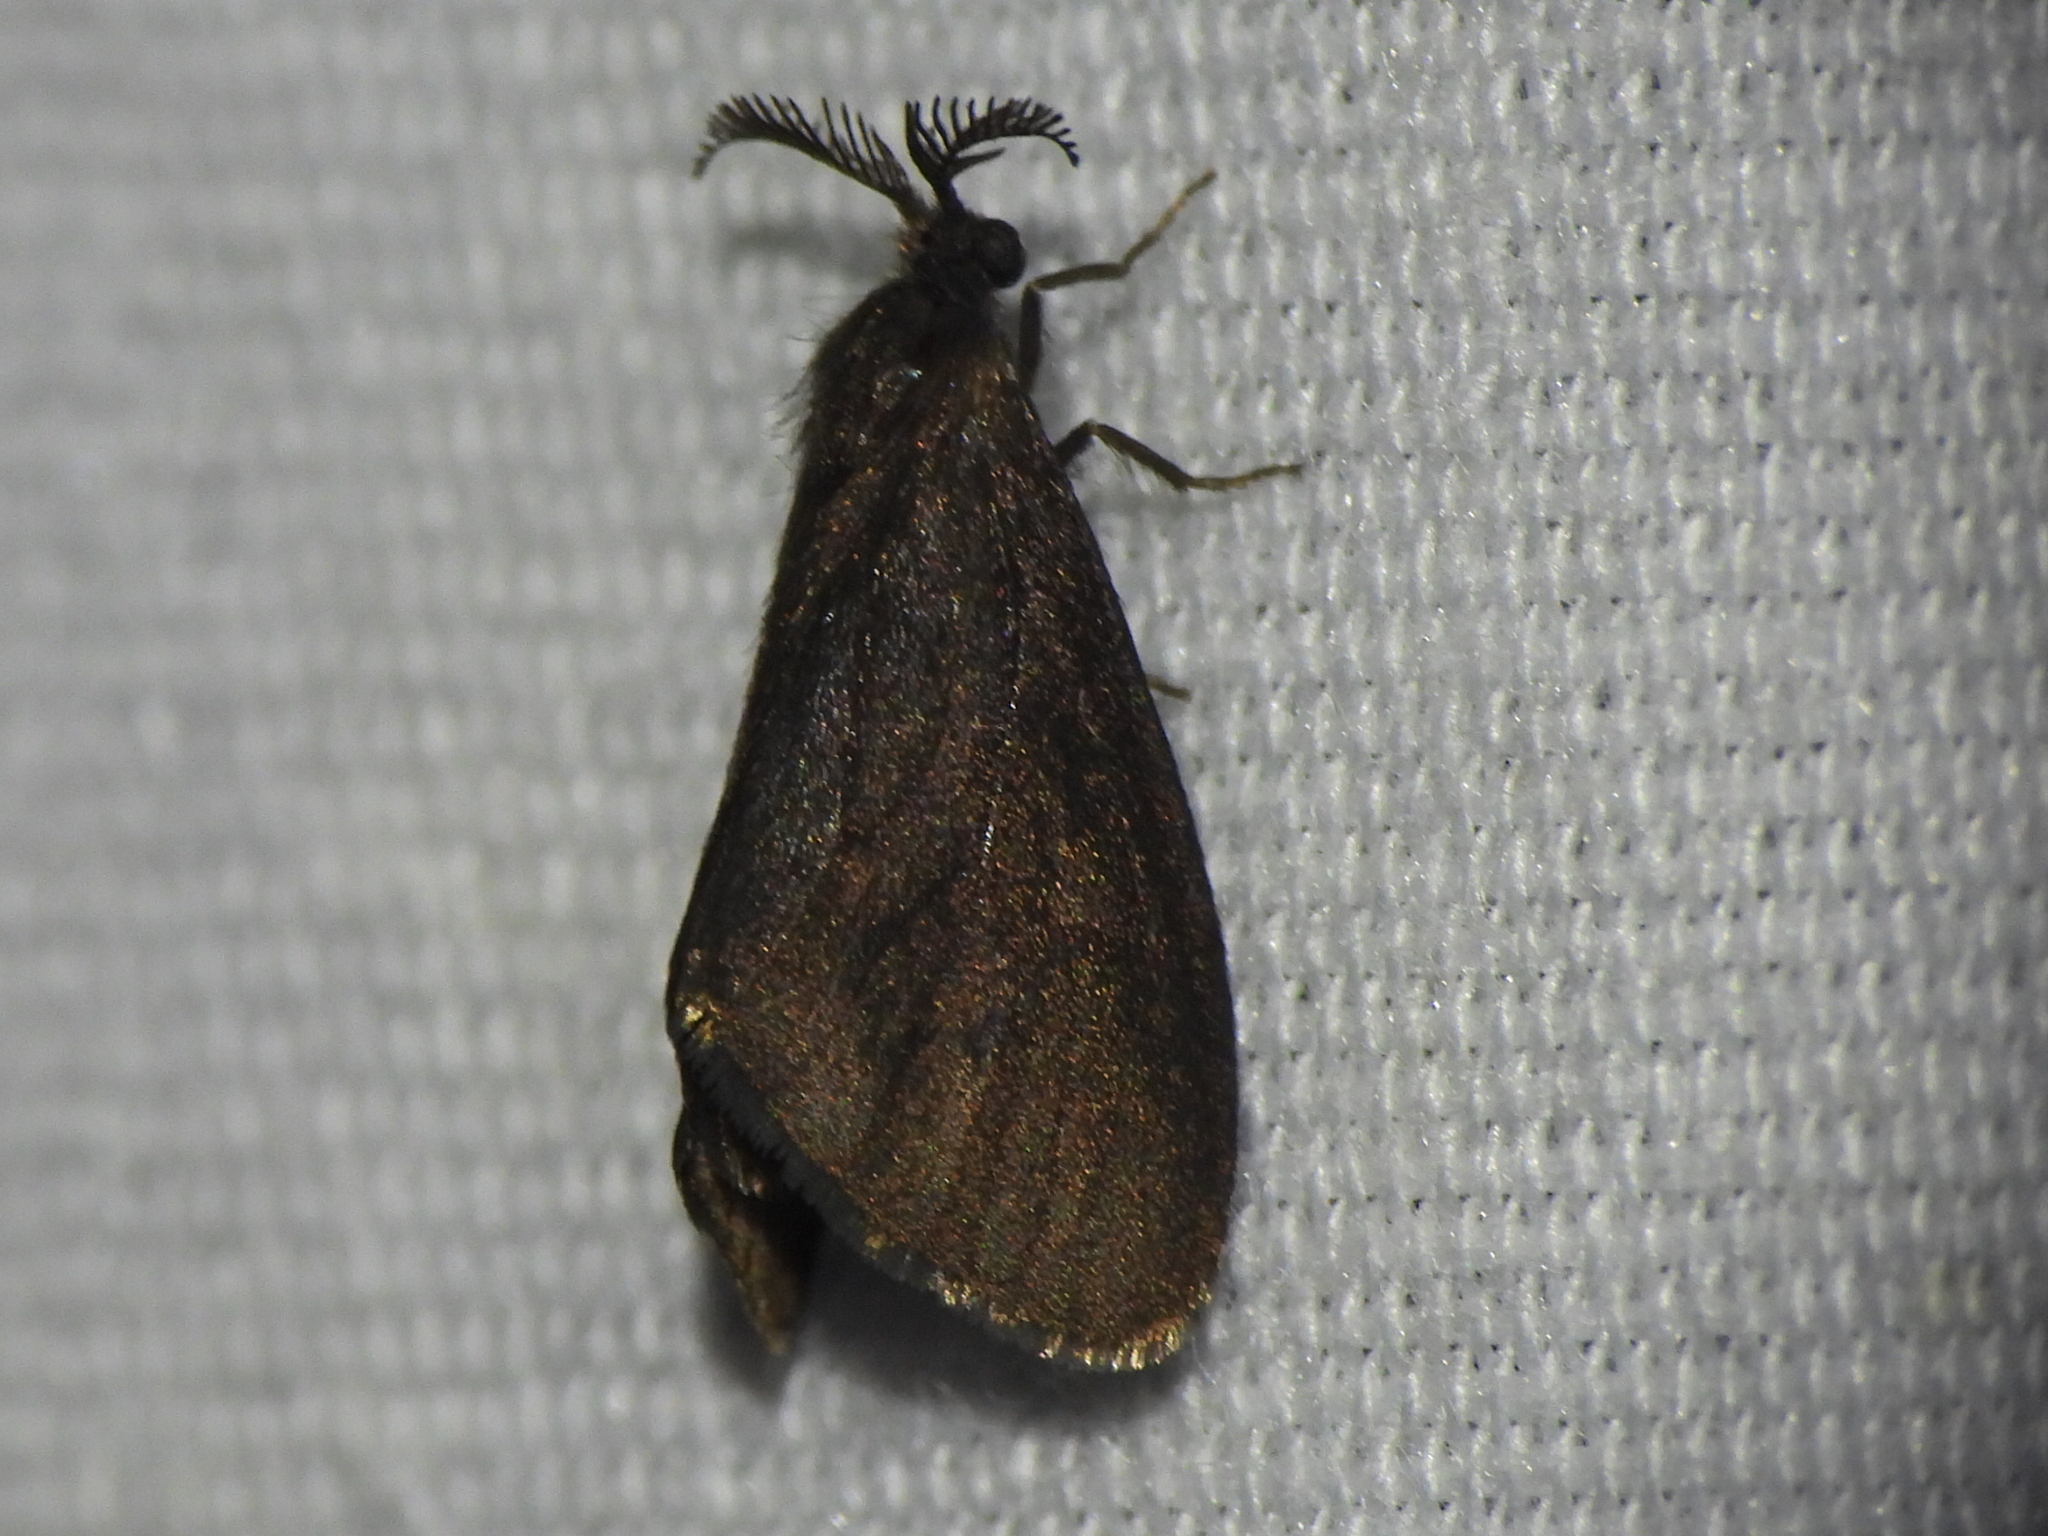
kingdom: Animalia
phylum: Arthropoda
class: Insecta
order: Lepidoptera
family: Psychidae
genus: Cryptothelea
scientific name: Cryptothelea gloverii
